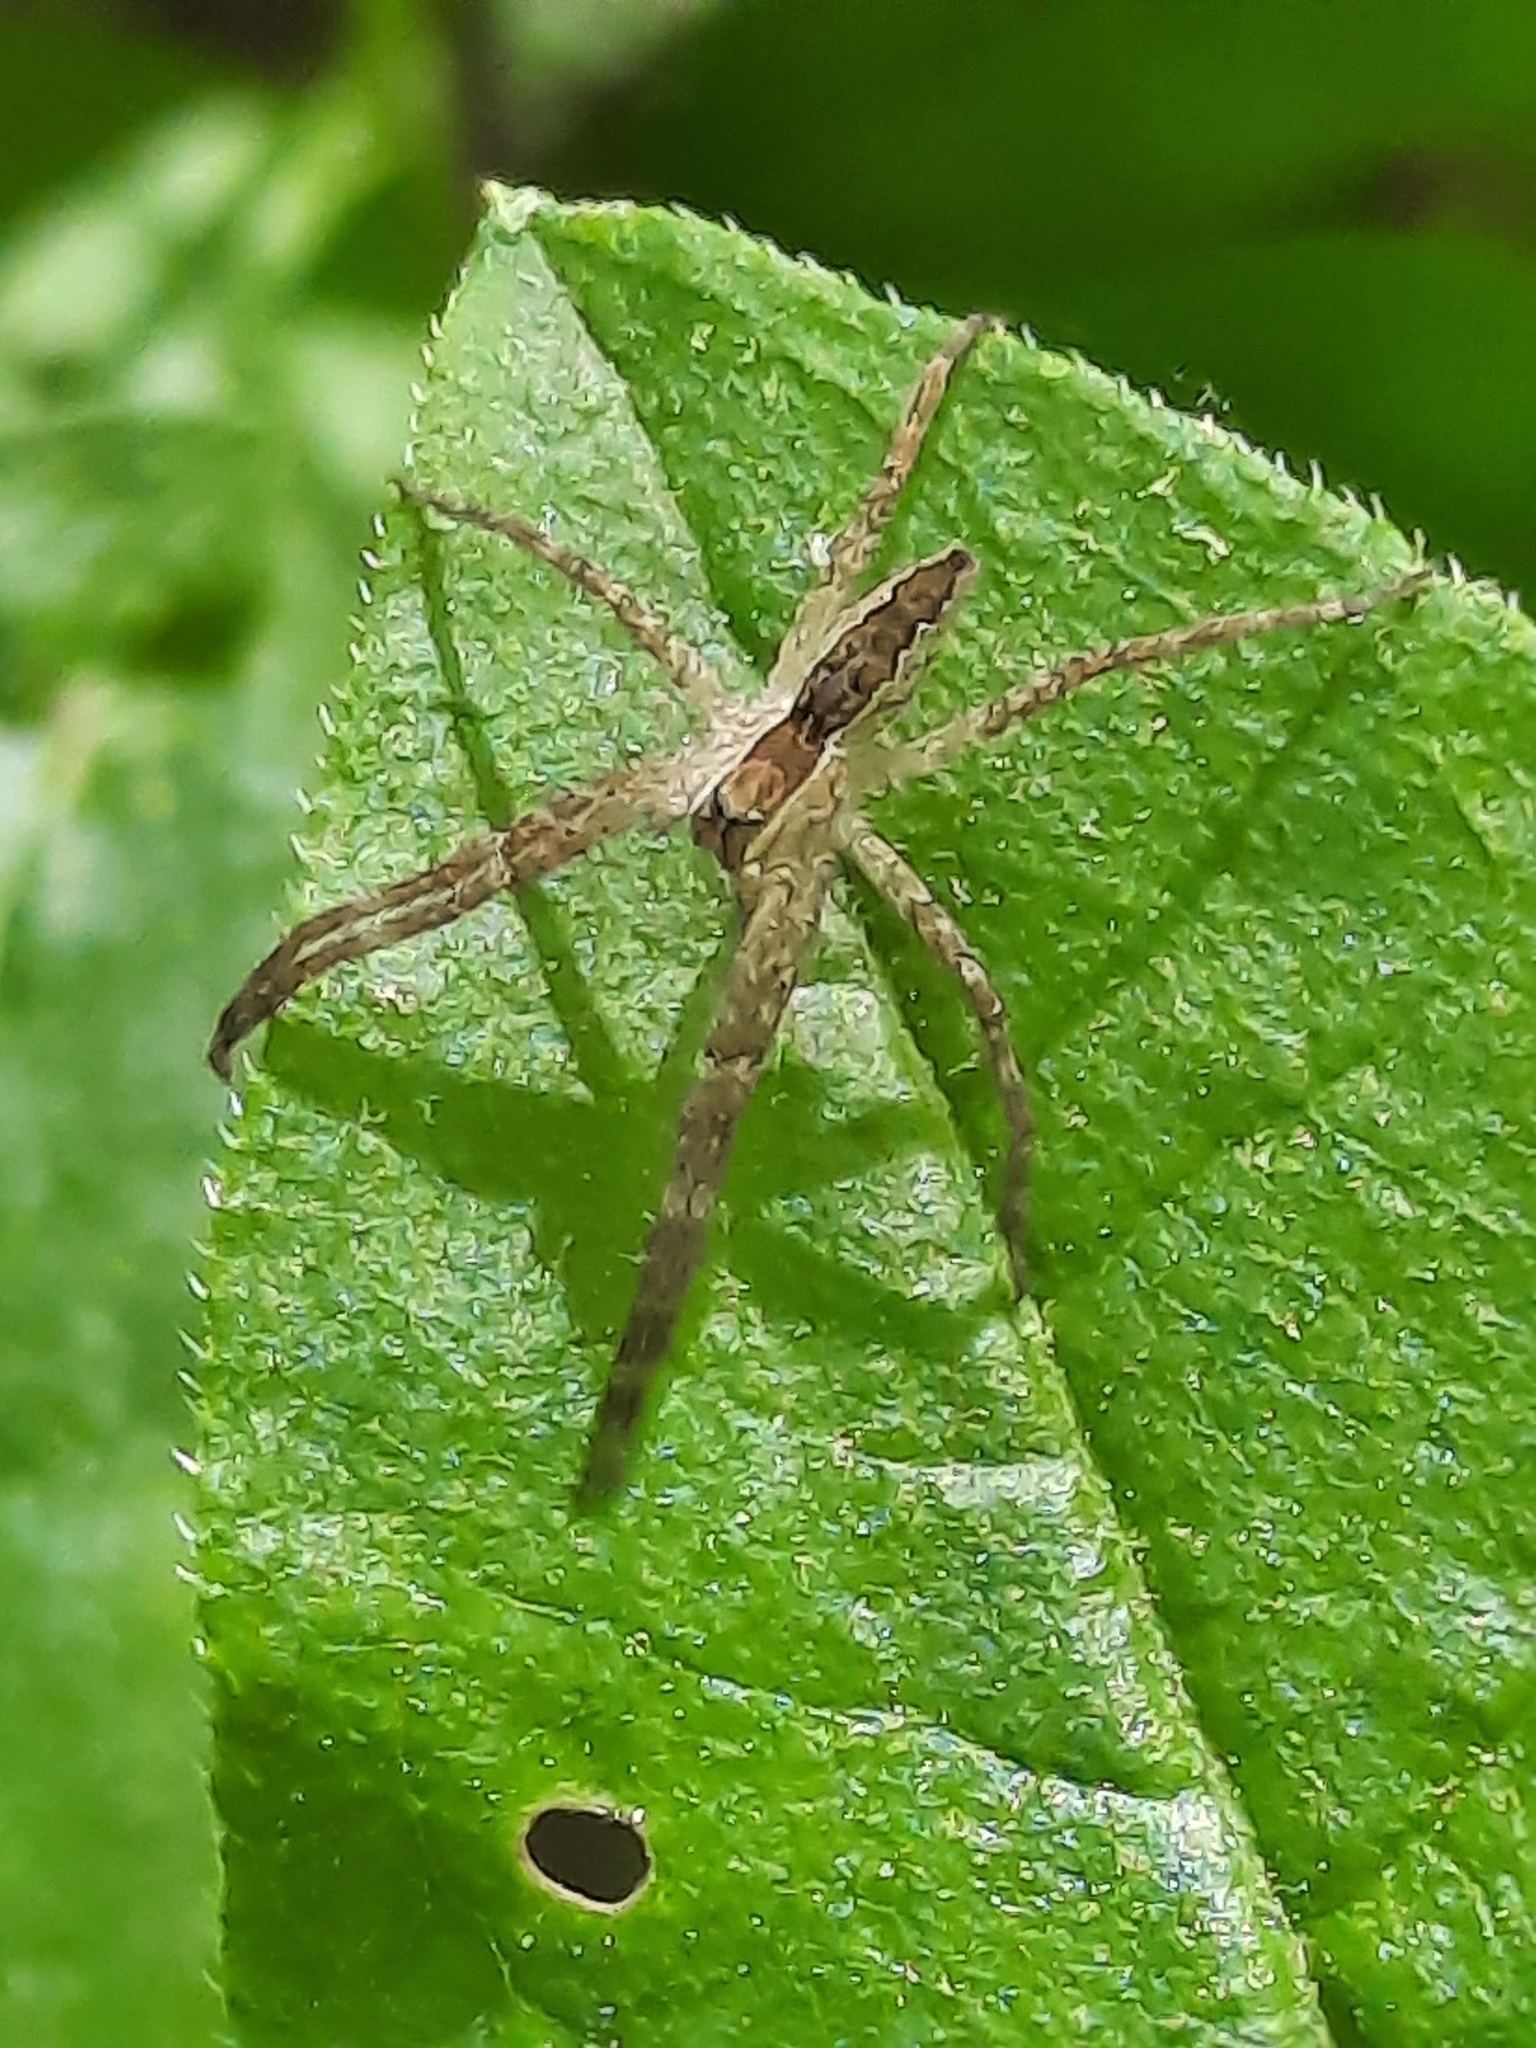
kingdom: Animalia
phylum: Arthropoda
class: Arachnida
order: Araneae
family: Pisauridae
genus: Pisaurina
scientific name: Pisaurina mira
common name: American nursery web spider
